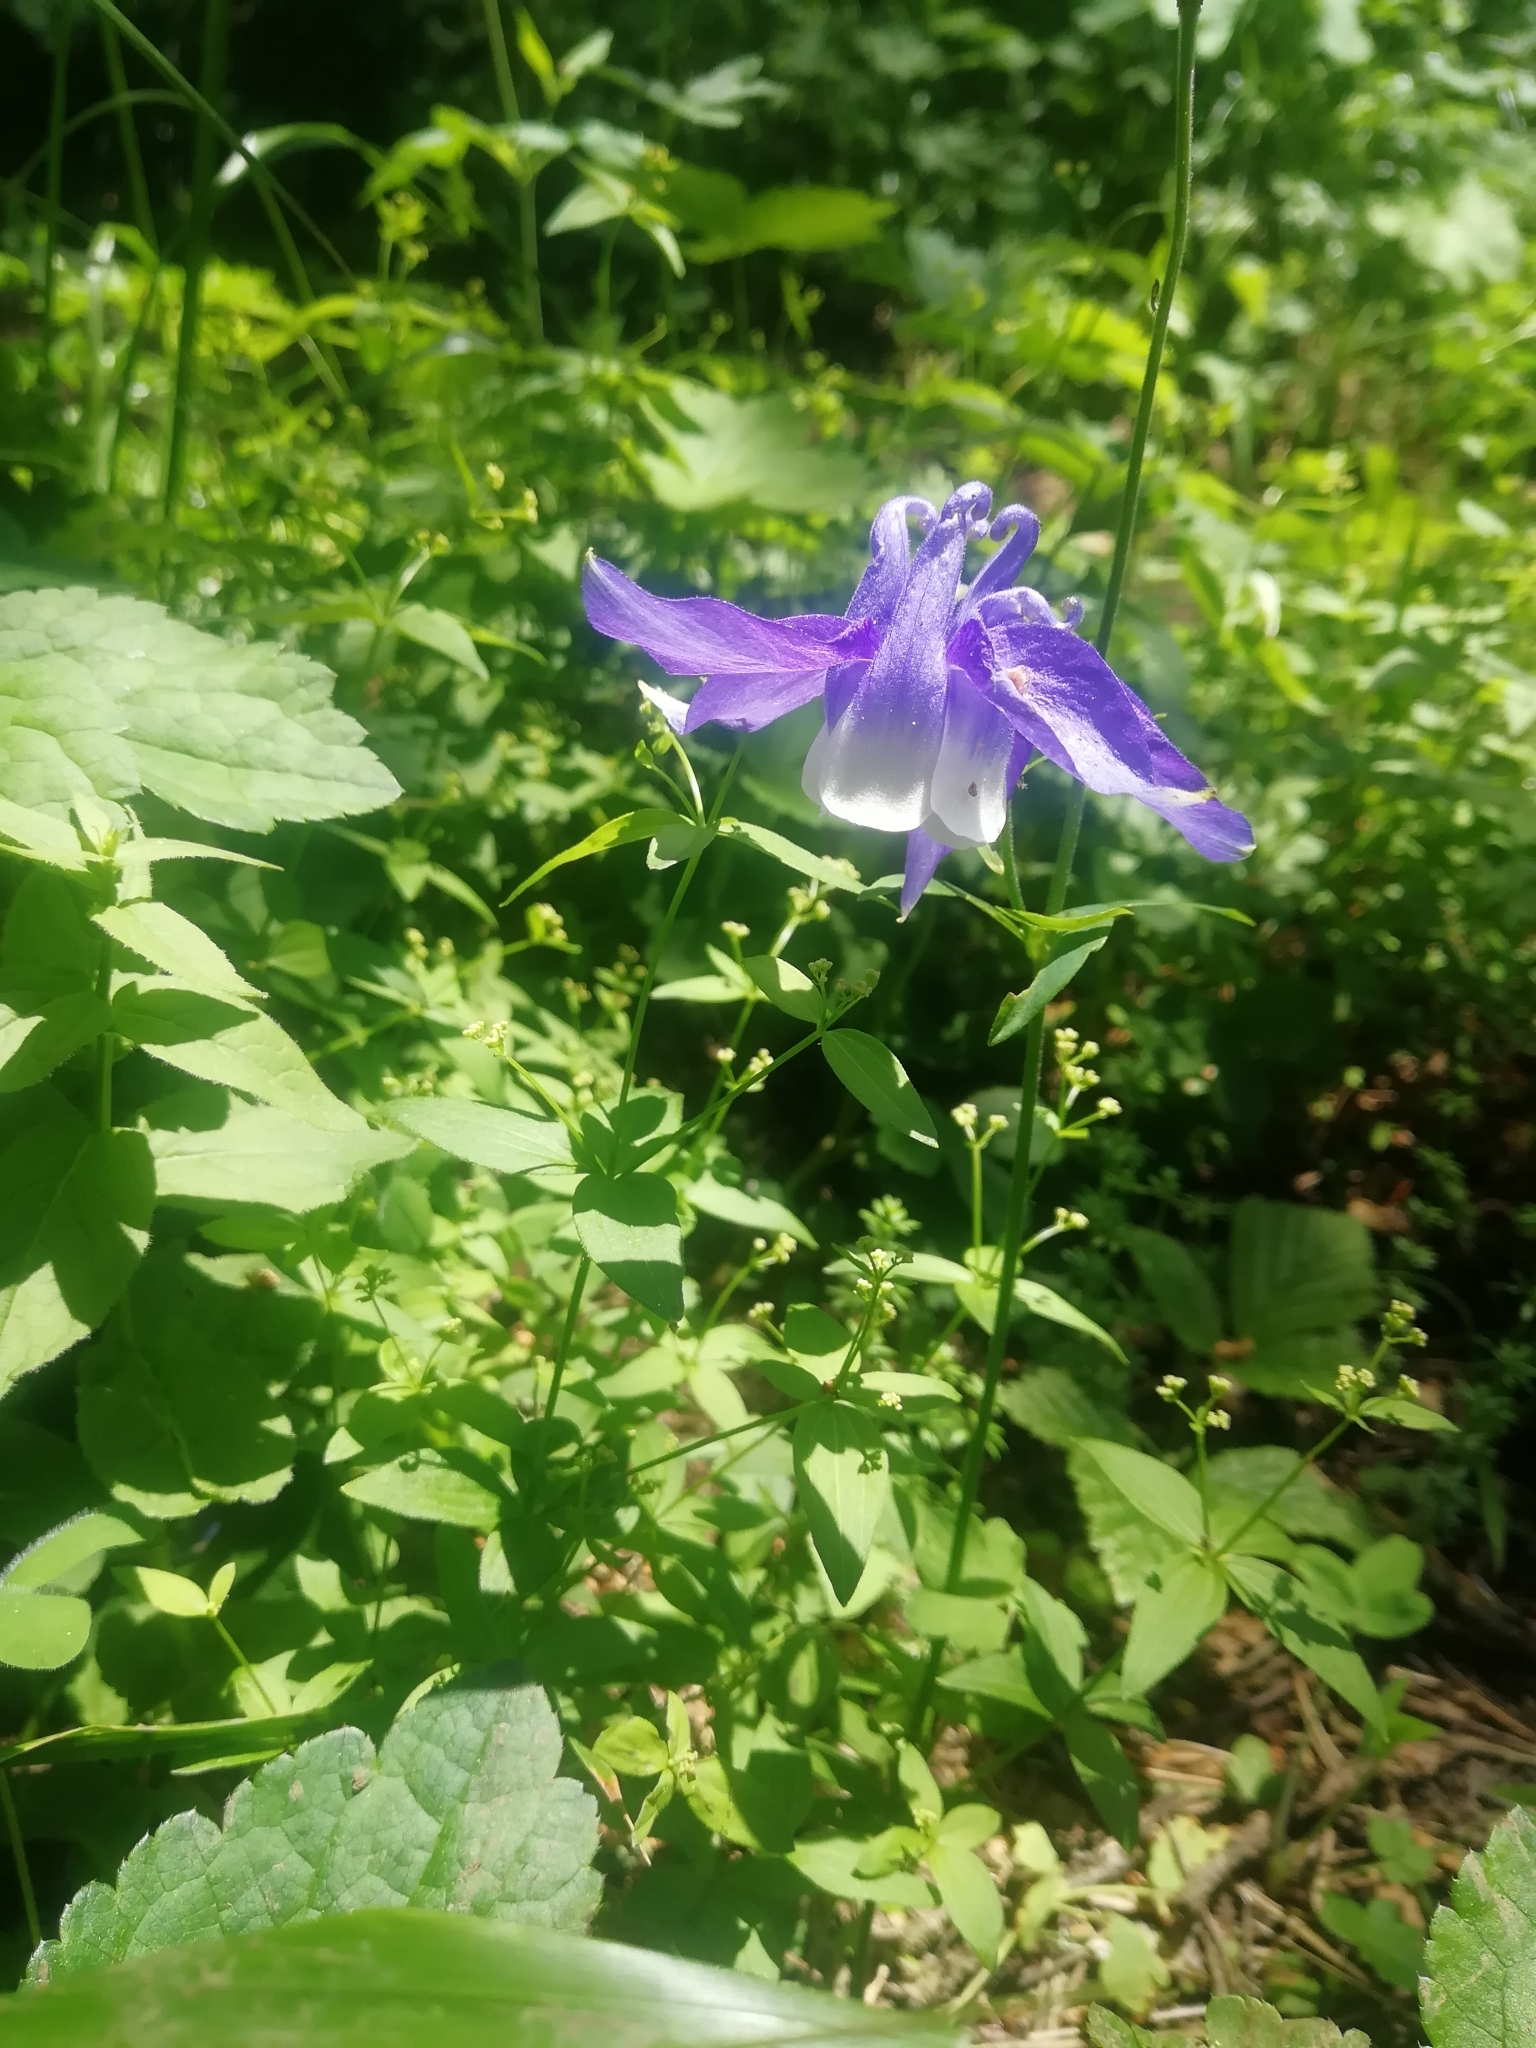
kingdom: Plantae
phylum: Tracheophyta
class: Magnoliopsida
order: Ranunculales
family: Ranunculaceae
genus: Aquilegia
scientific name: Aquilegia olympica
